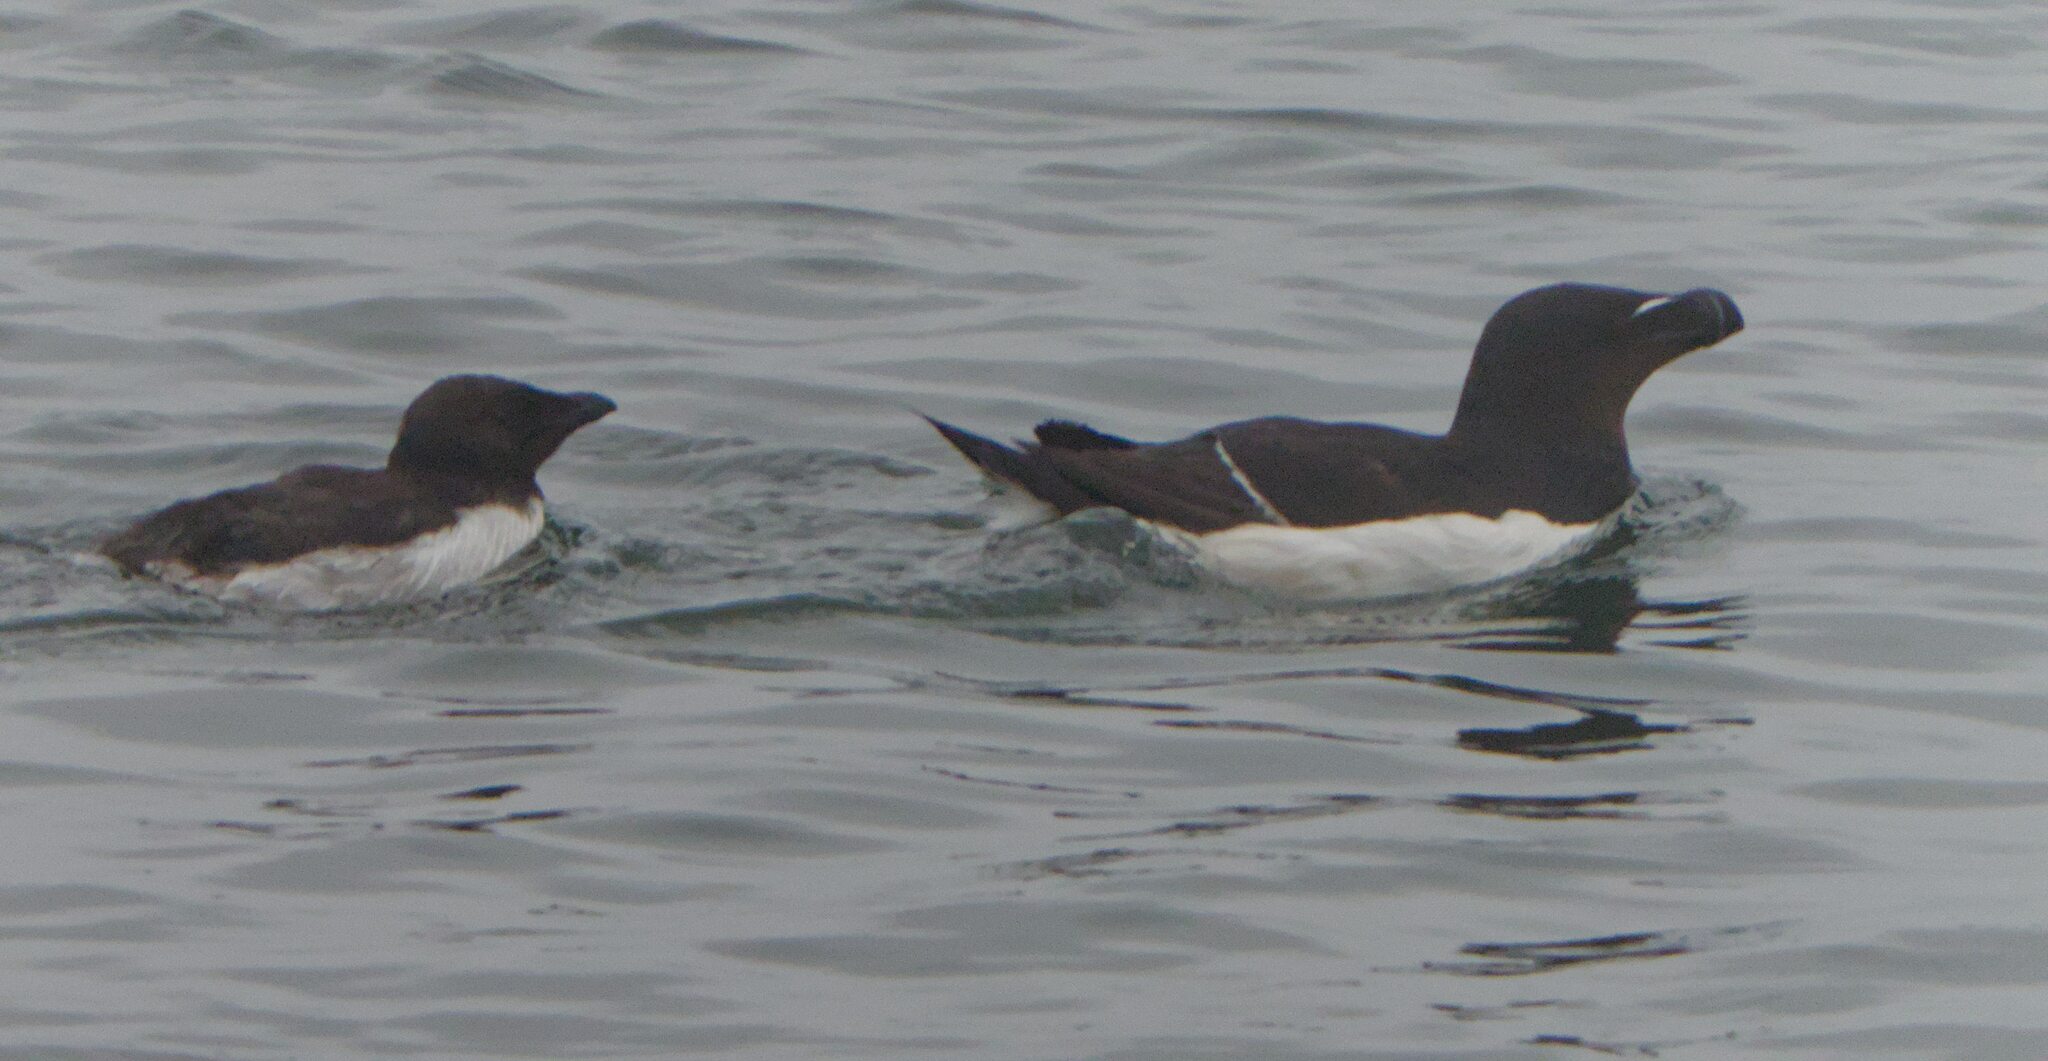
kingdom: Animalia
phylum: Chordata
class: Aves
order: Charadriiformes
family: Alcidae
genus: Alca
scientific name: Alca torda
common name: Razorbill
